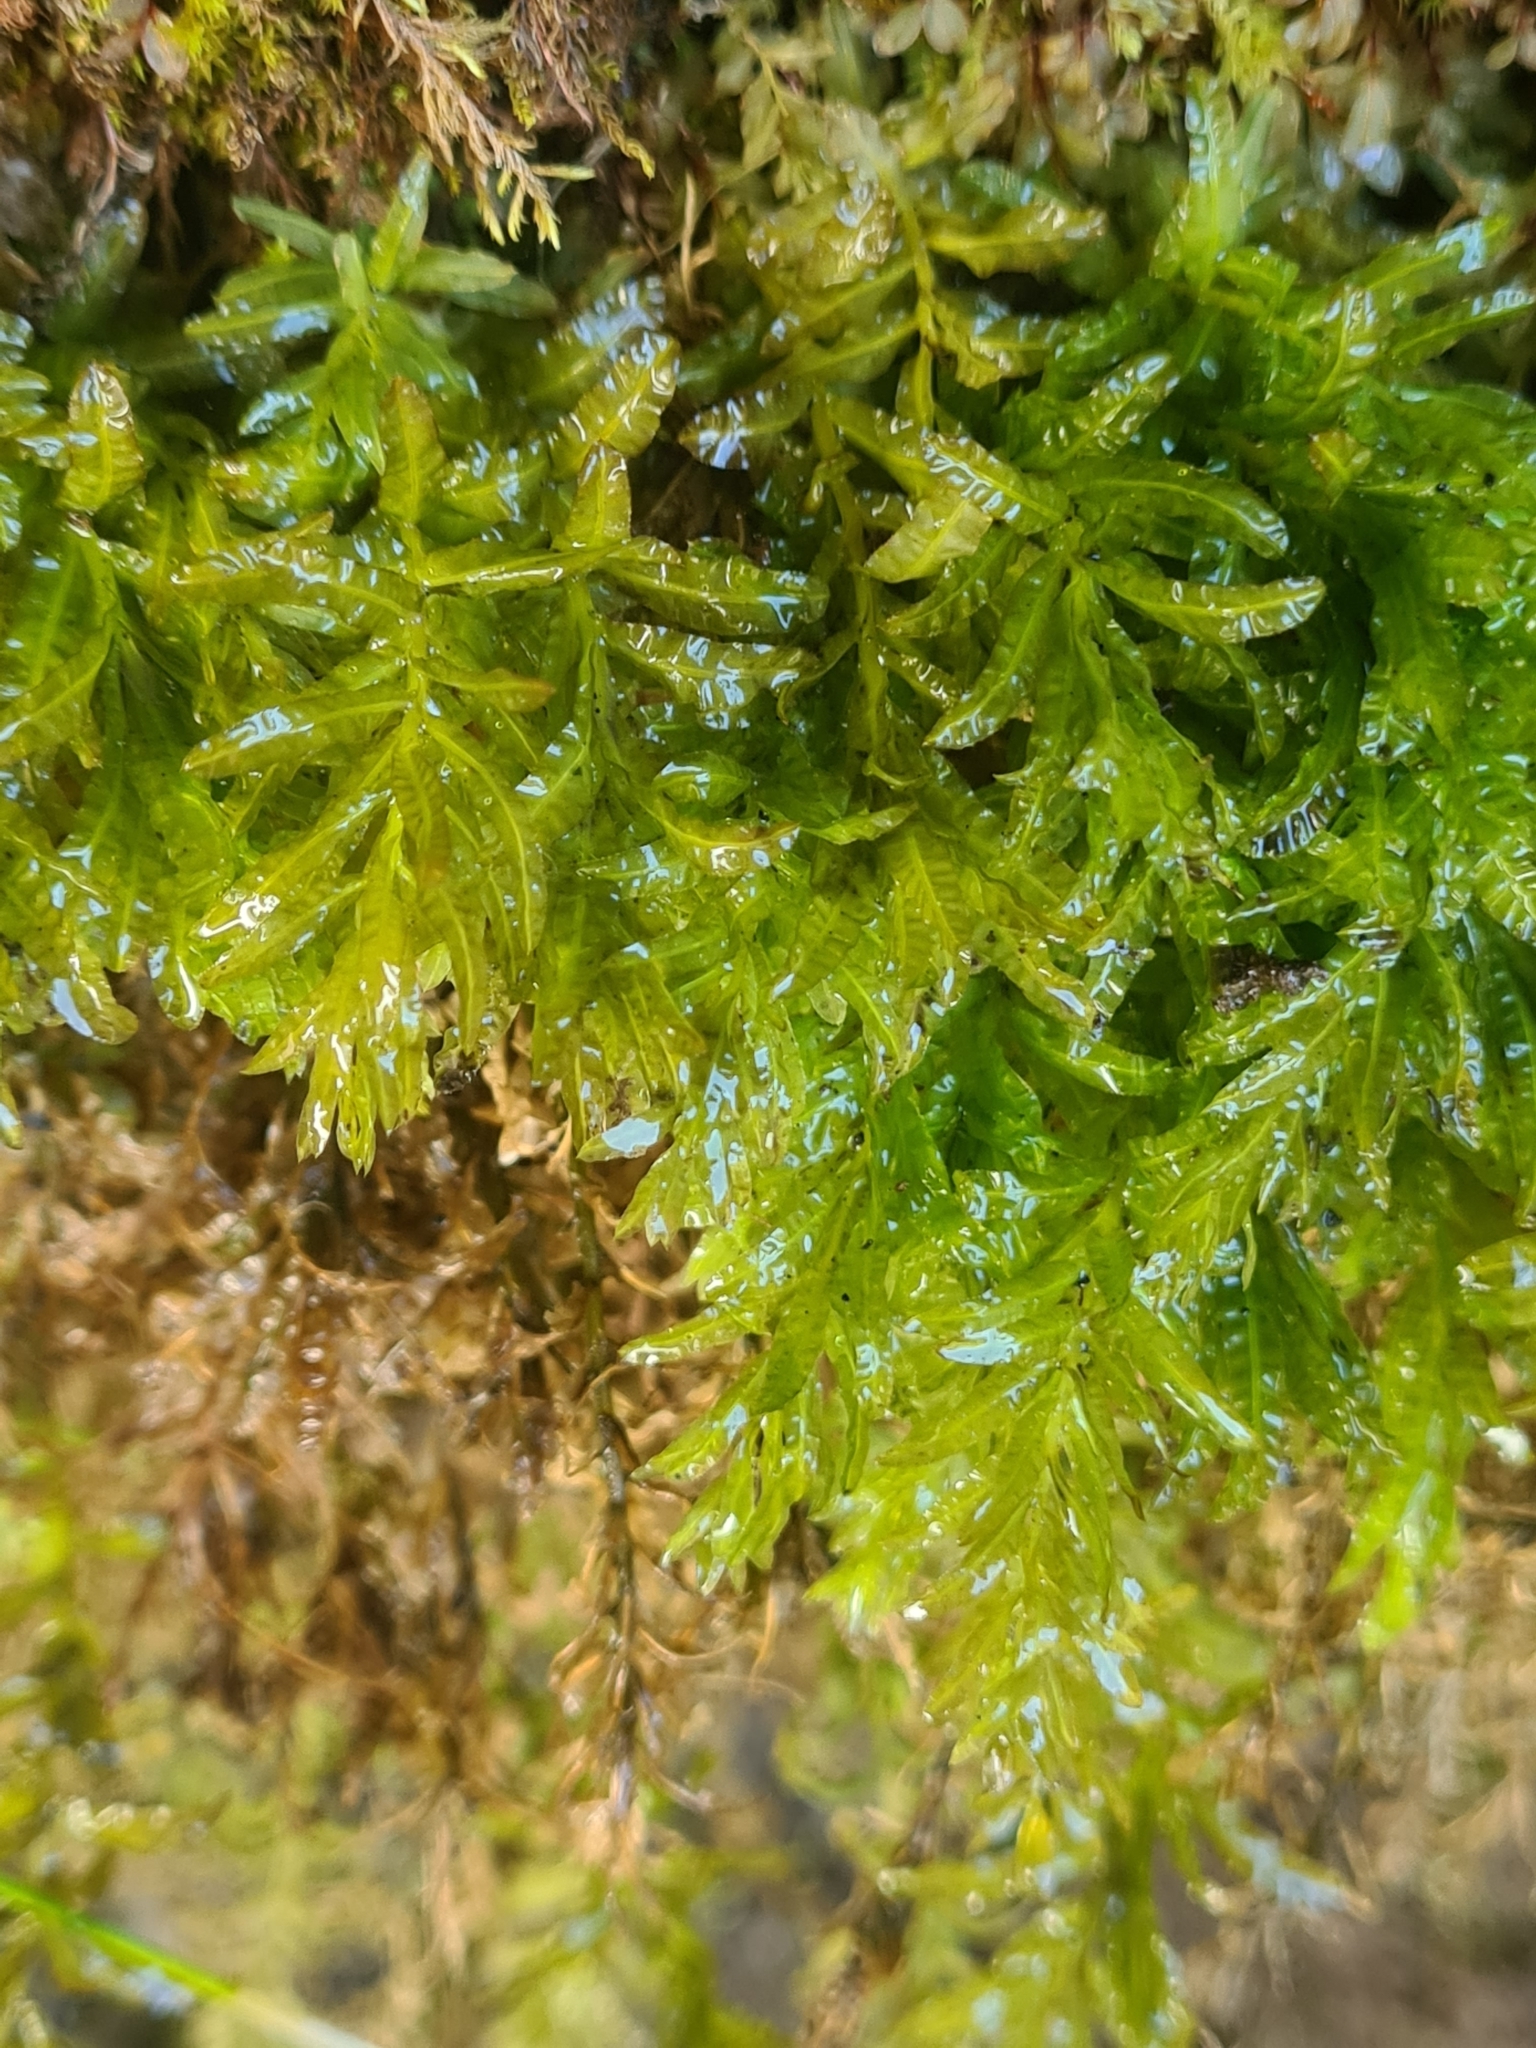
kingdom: Plantae
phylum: Bryophyta
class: Bryopsida
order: Bryales
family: Mniaceae
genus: Plagiomnium
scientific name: Plagiomnium undulatum
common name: Hart's-tongue thyme-moss
